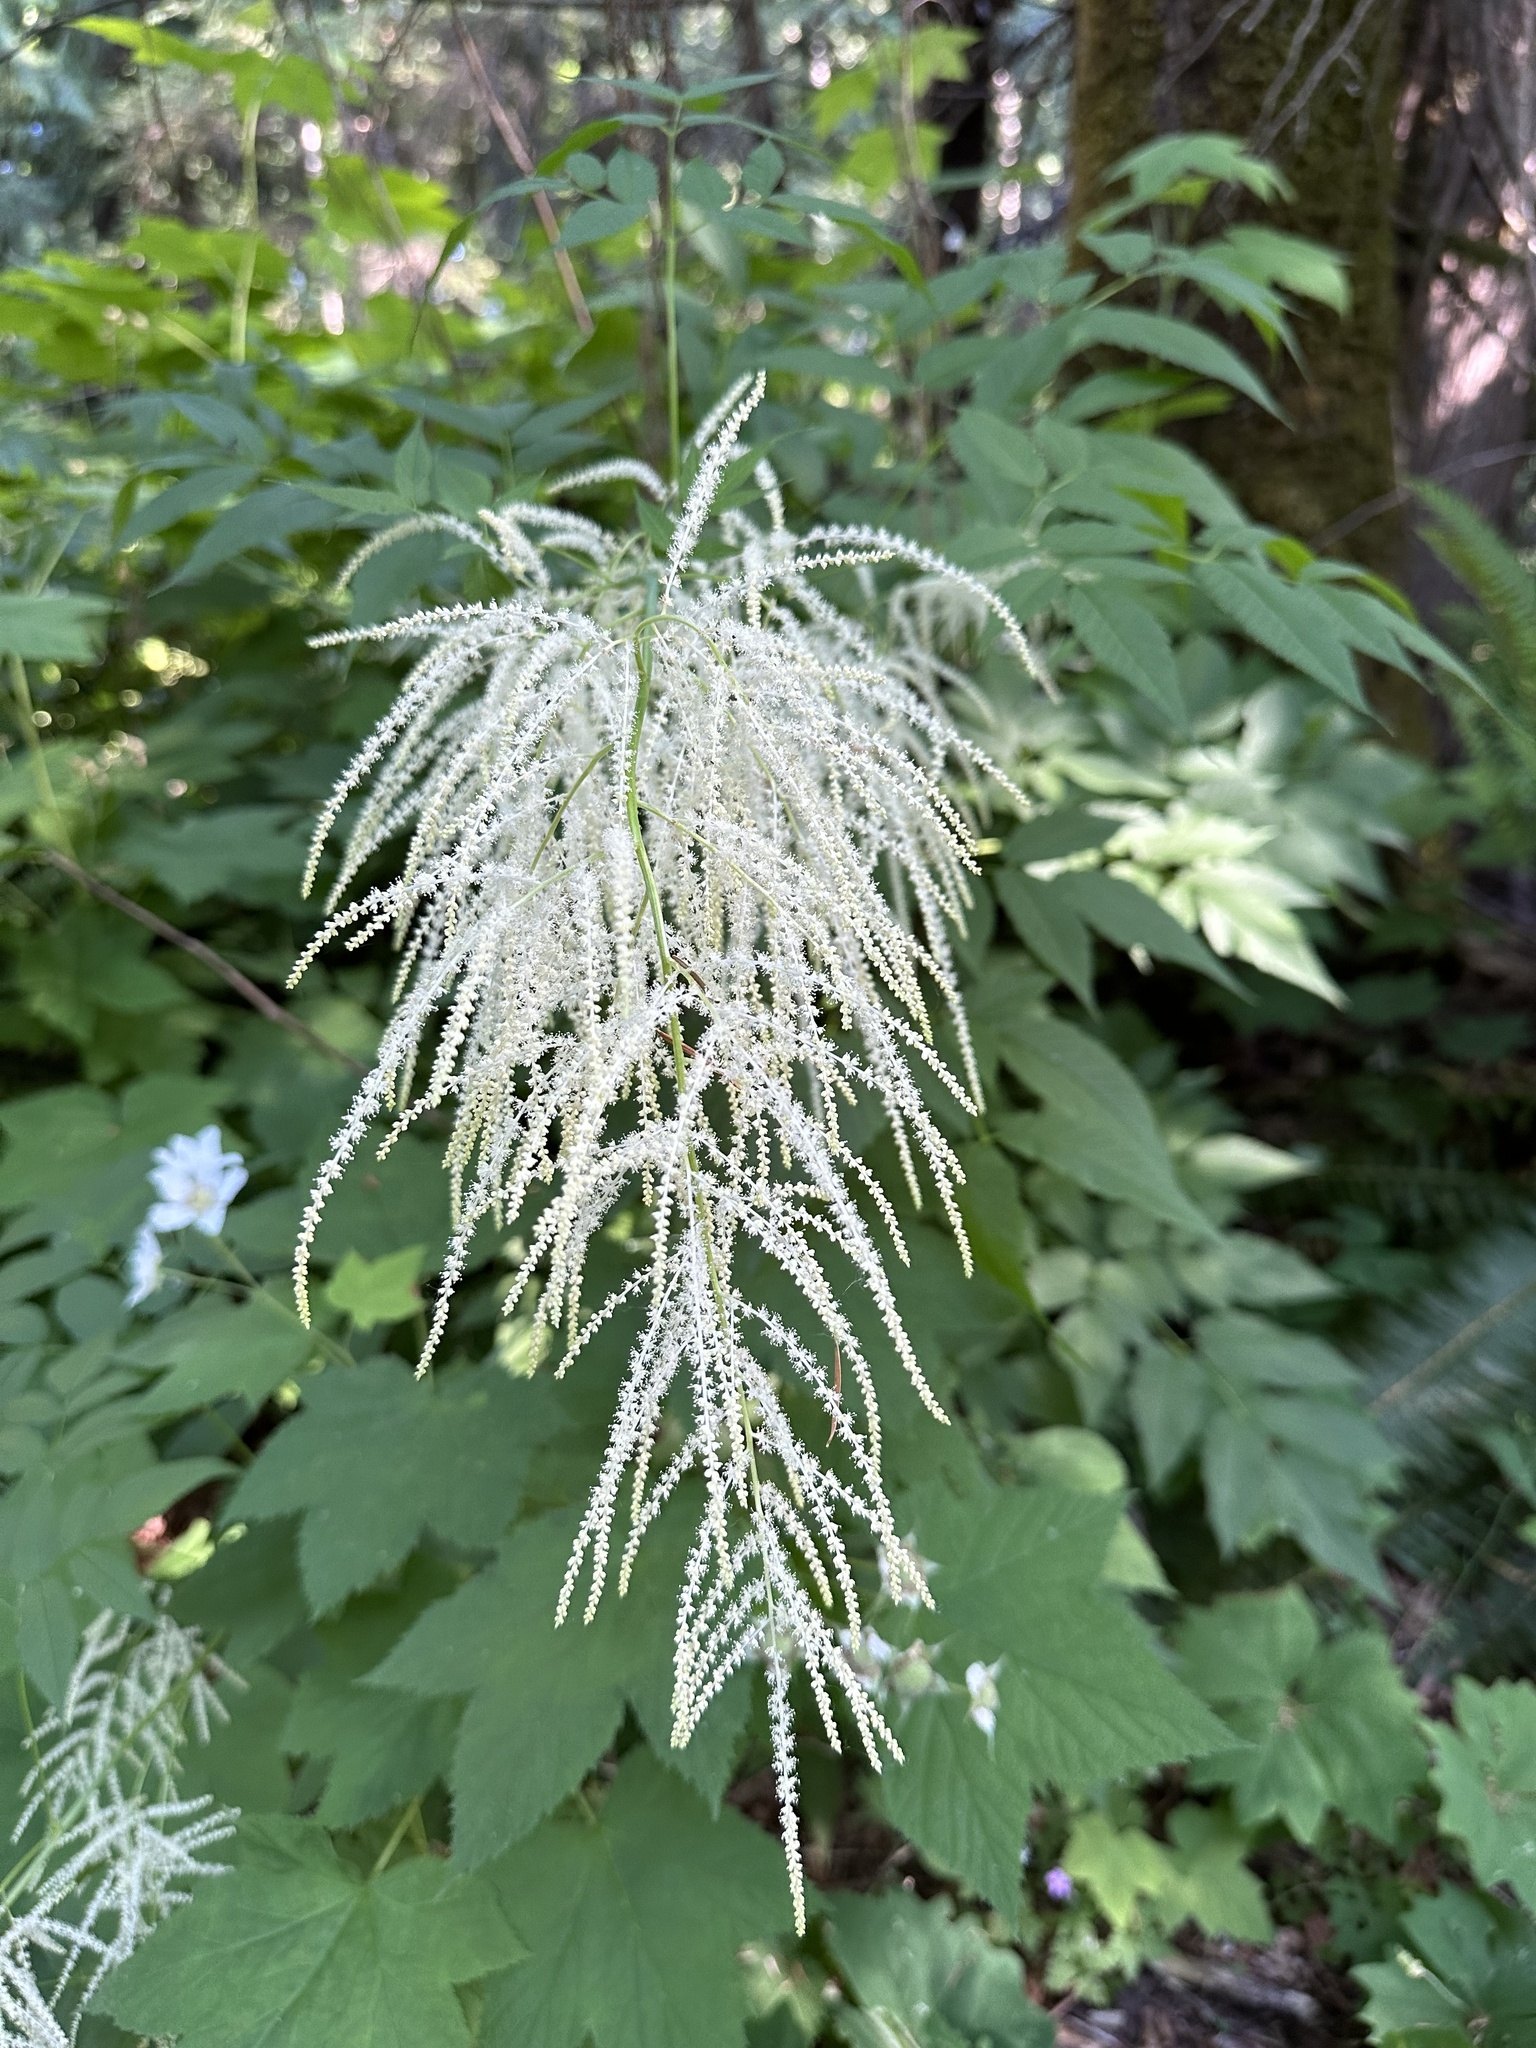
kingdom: Plantae
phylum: Tracheophyta
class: Magnoliopsida
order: Rosales
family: Rosaceae
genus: Aruncus
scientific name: Aruncus dioicus
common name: Buck's-beard
